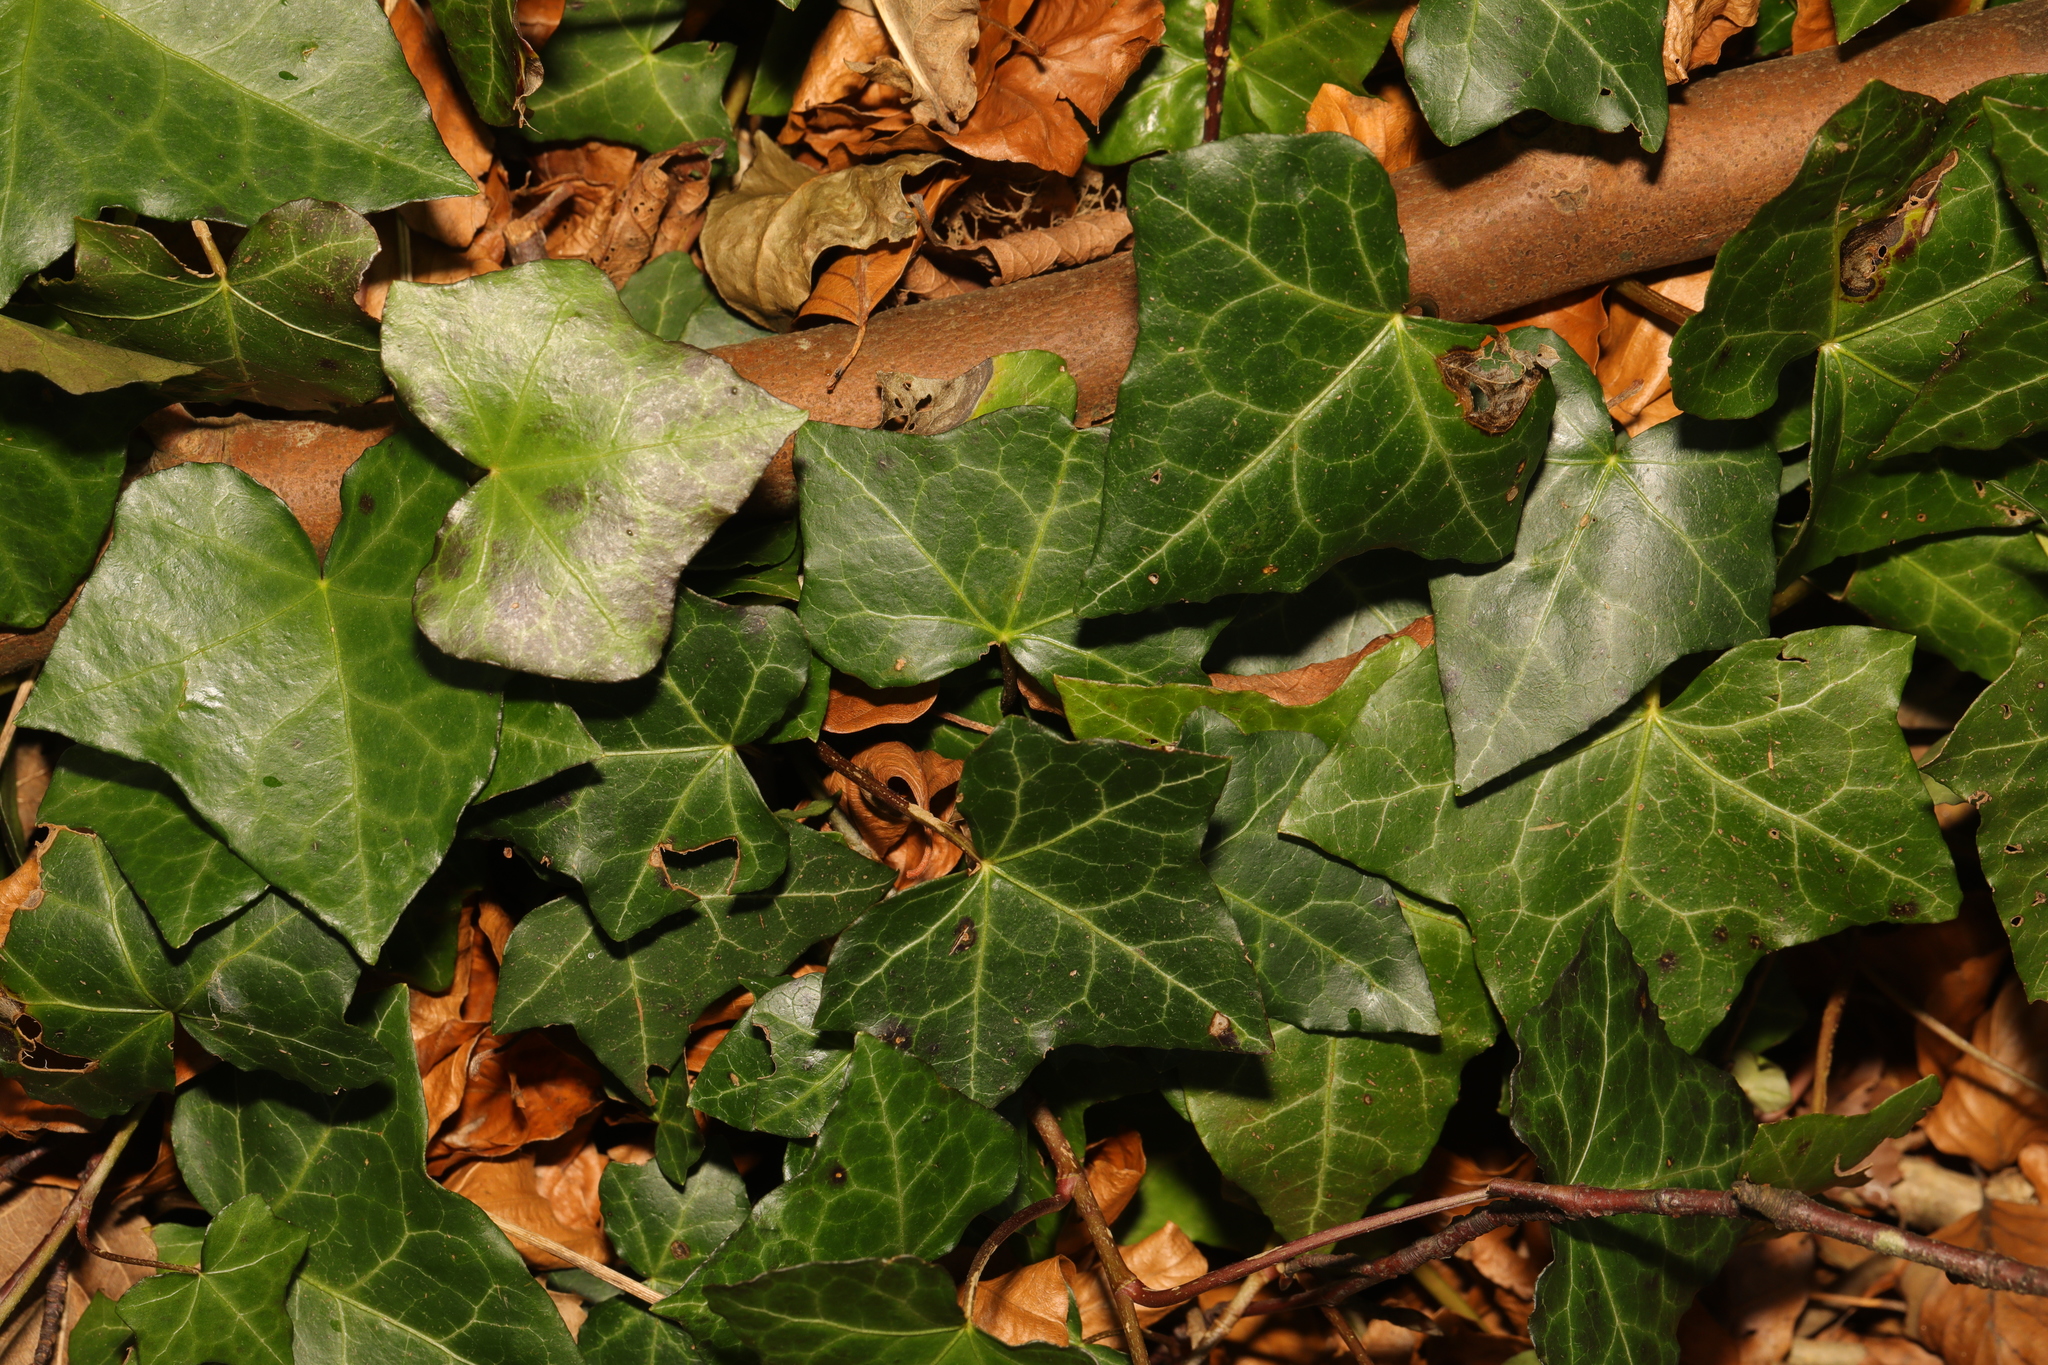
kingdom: Plantae
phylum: Tracheophyta
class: Magnoliopsida
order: Apiales
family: Araliaceae
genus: Hedera
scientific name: Hedera helix
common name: Ivy
